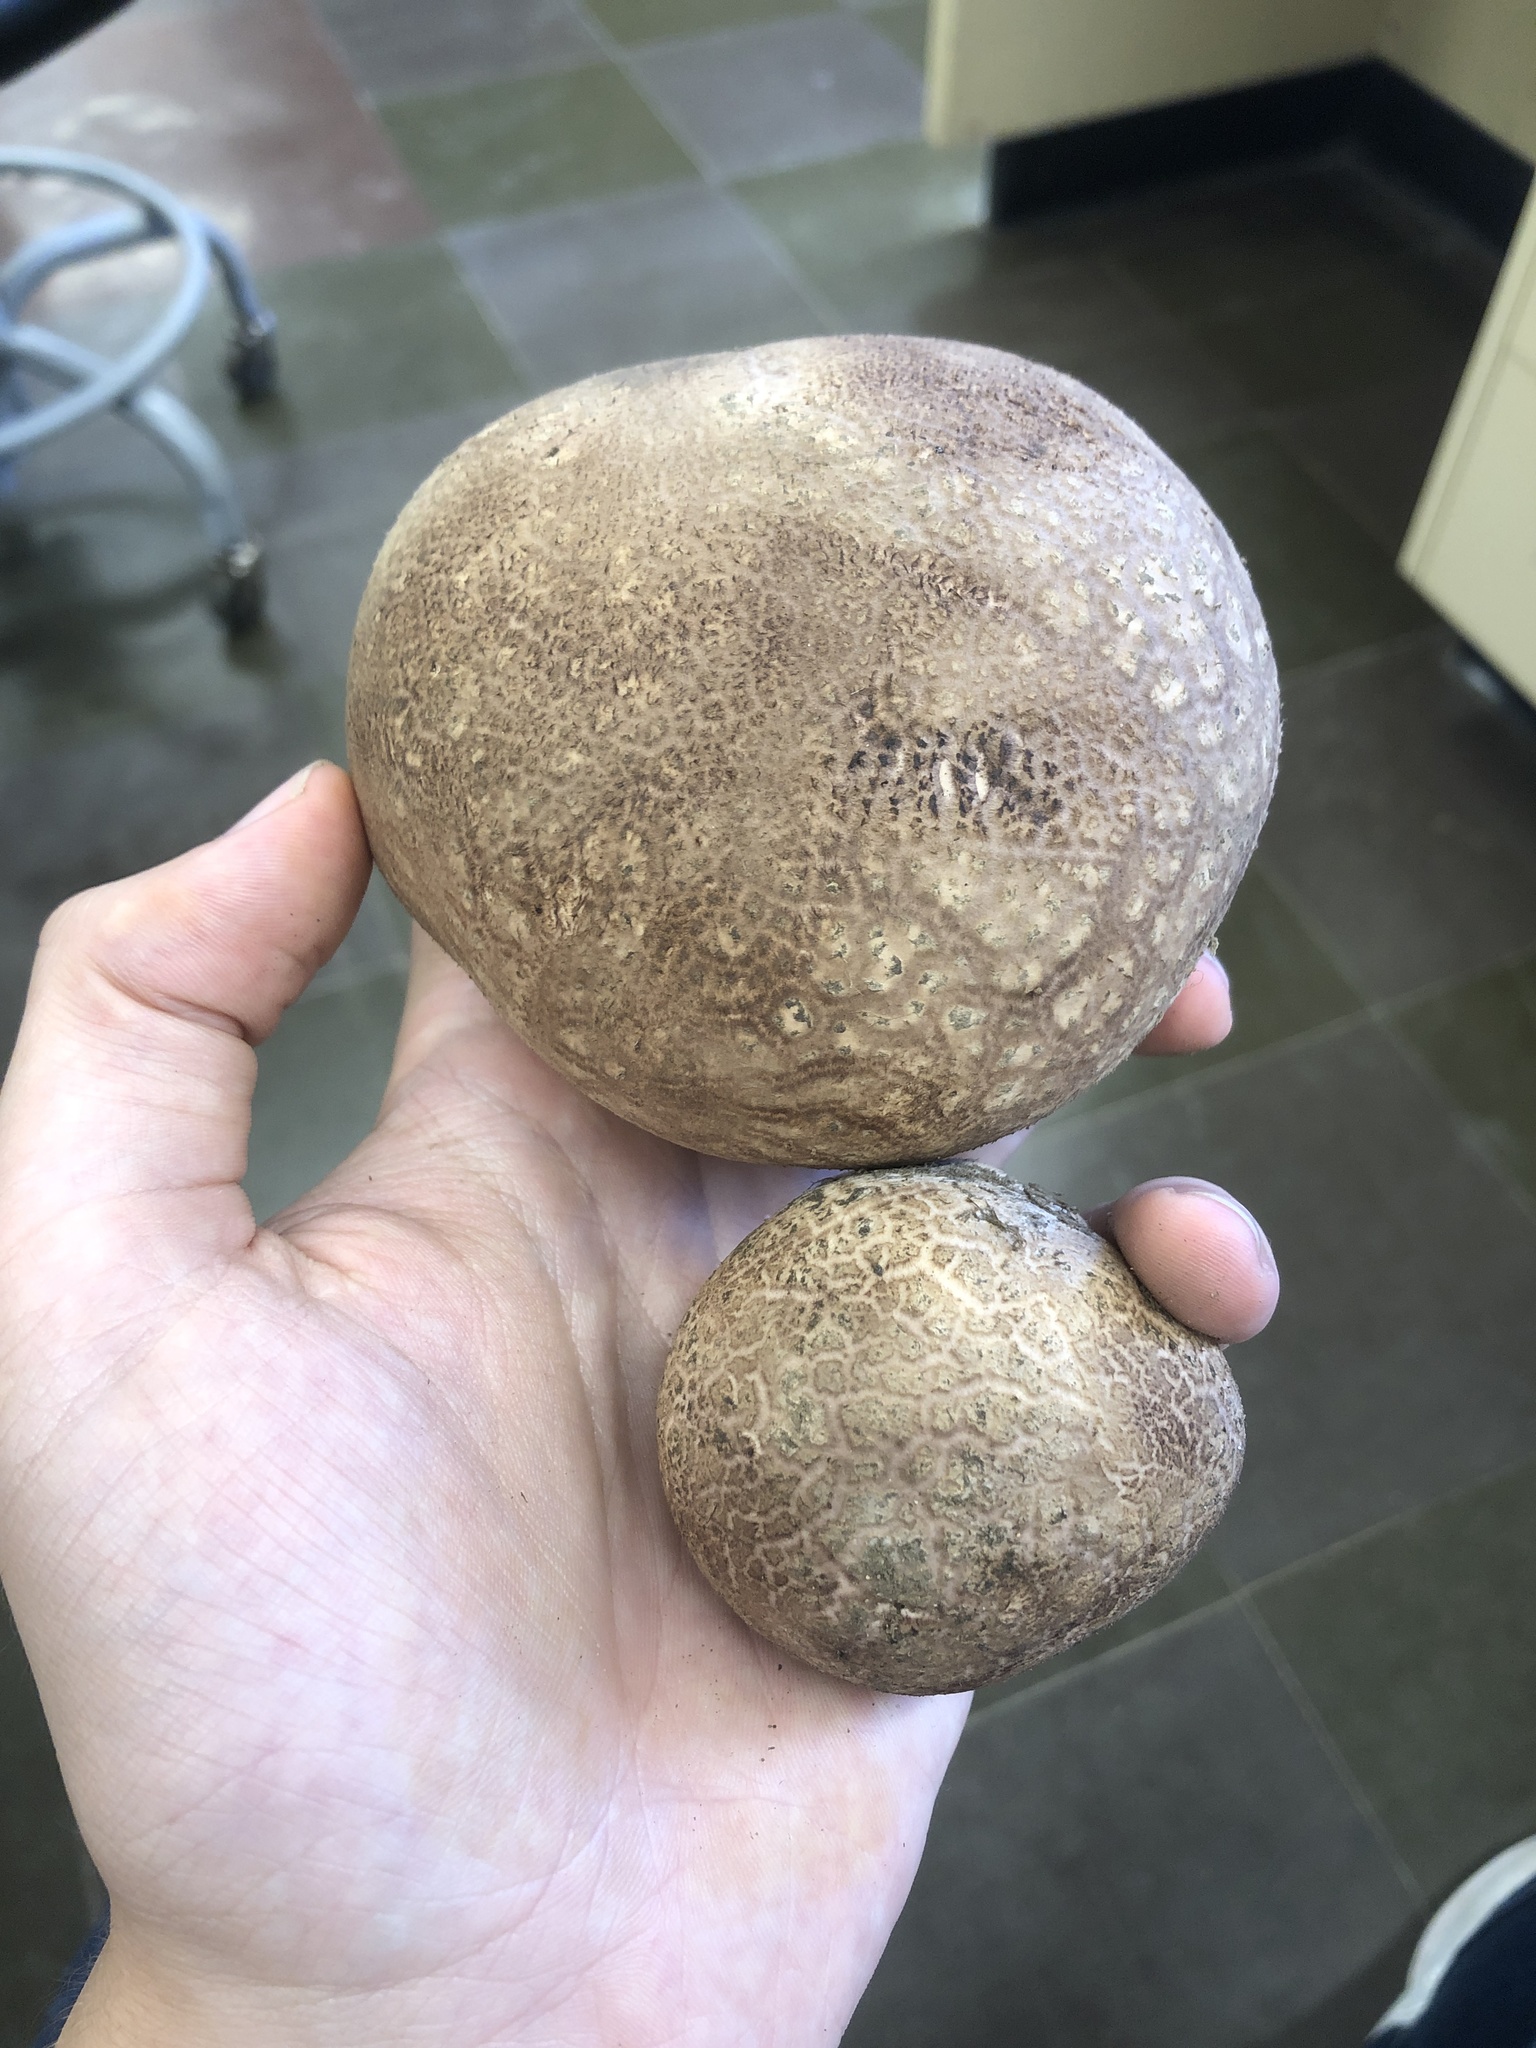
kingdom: Fungi
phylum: Basidiomycota
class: Agaricomycetes
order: Agaricales
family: Lycoperdaceae
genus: Calvatia
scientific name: Calvatia cyathiformis
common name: Purple-spored puffball
